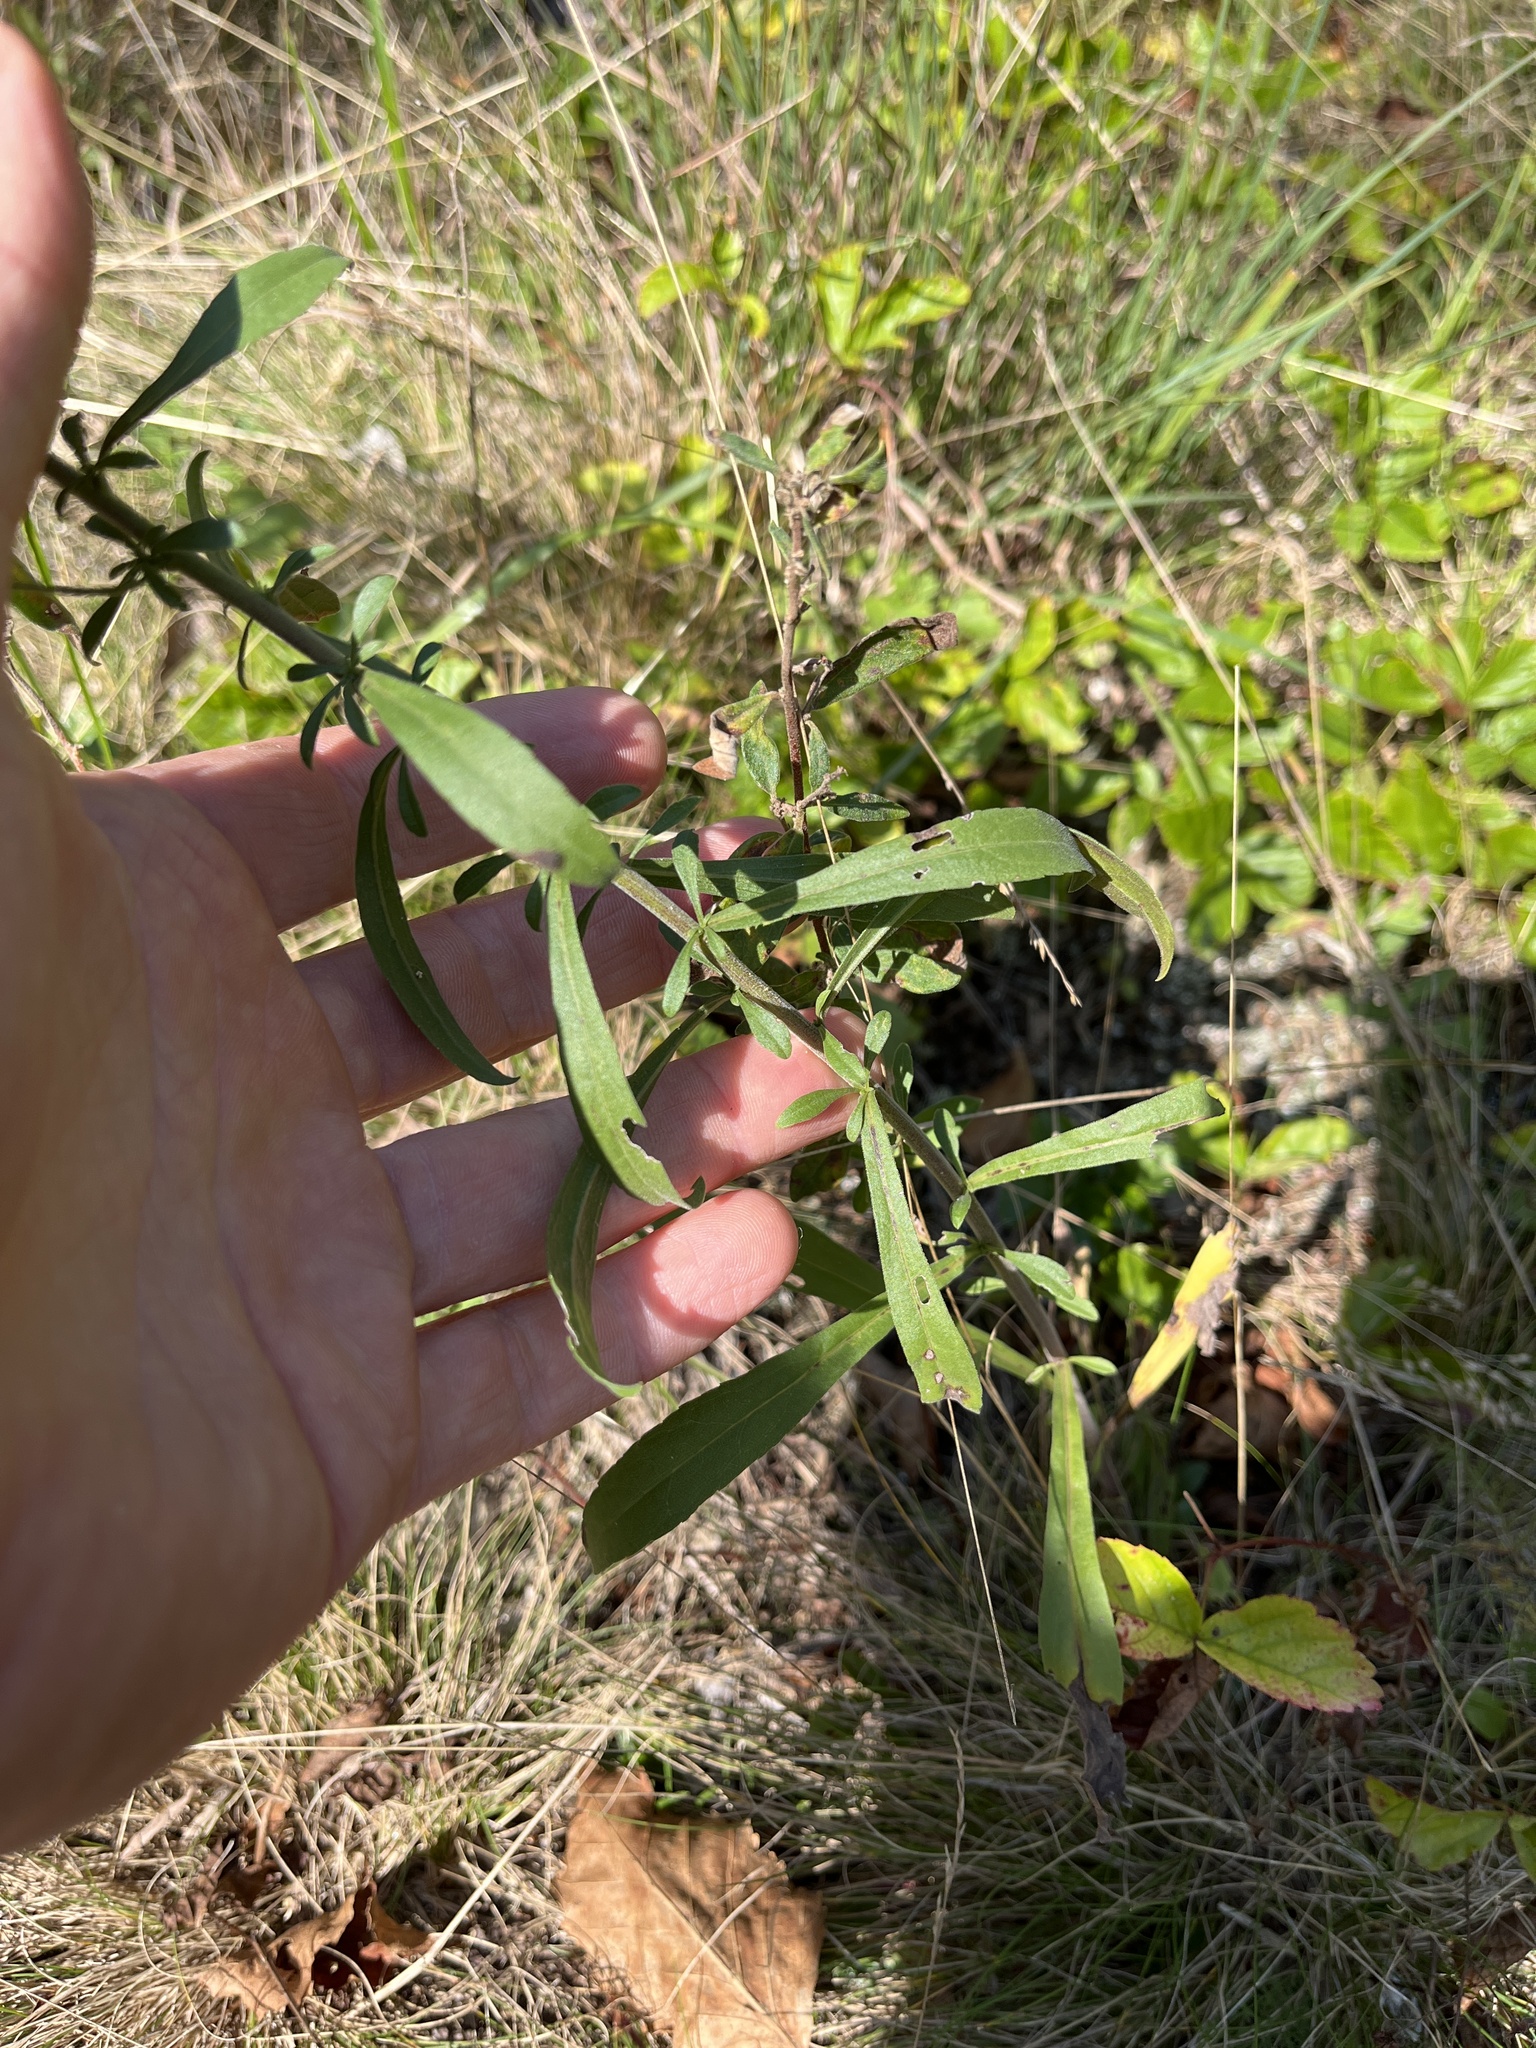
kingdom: Plantae
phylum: Tracheophyta
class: Magnoliopsida
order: Asterales
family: Asteraceae
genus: Solidago
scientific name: Solidago nemoralis
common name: Grey goldenrod
